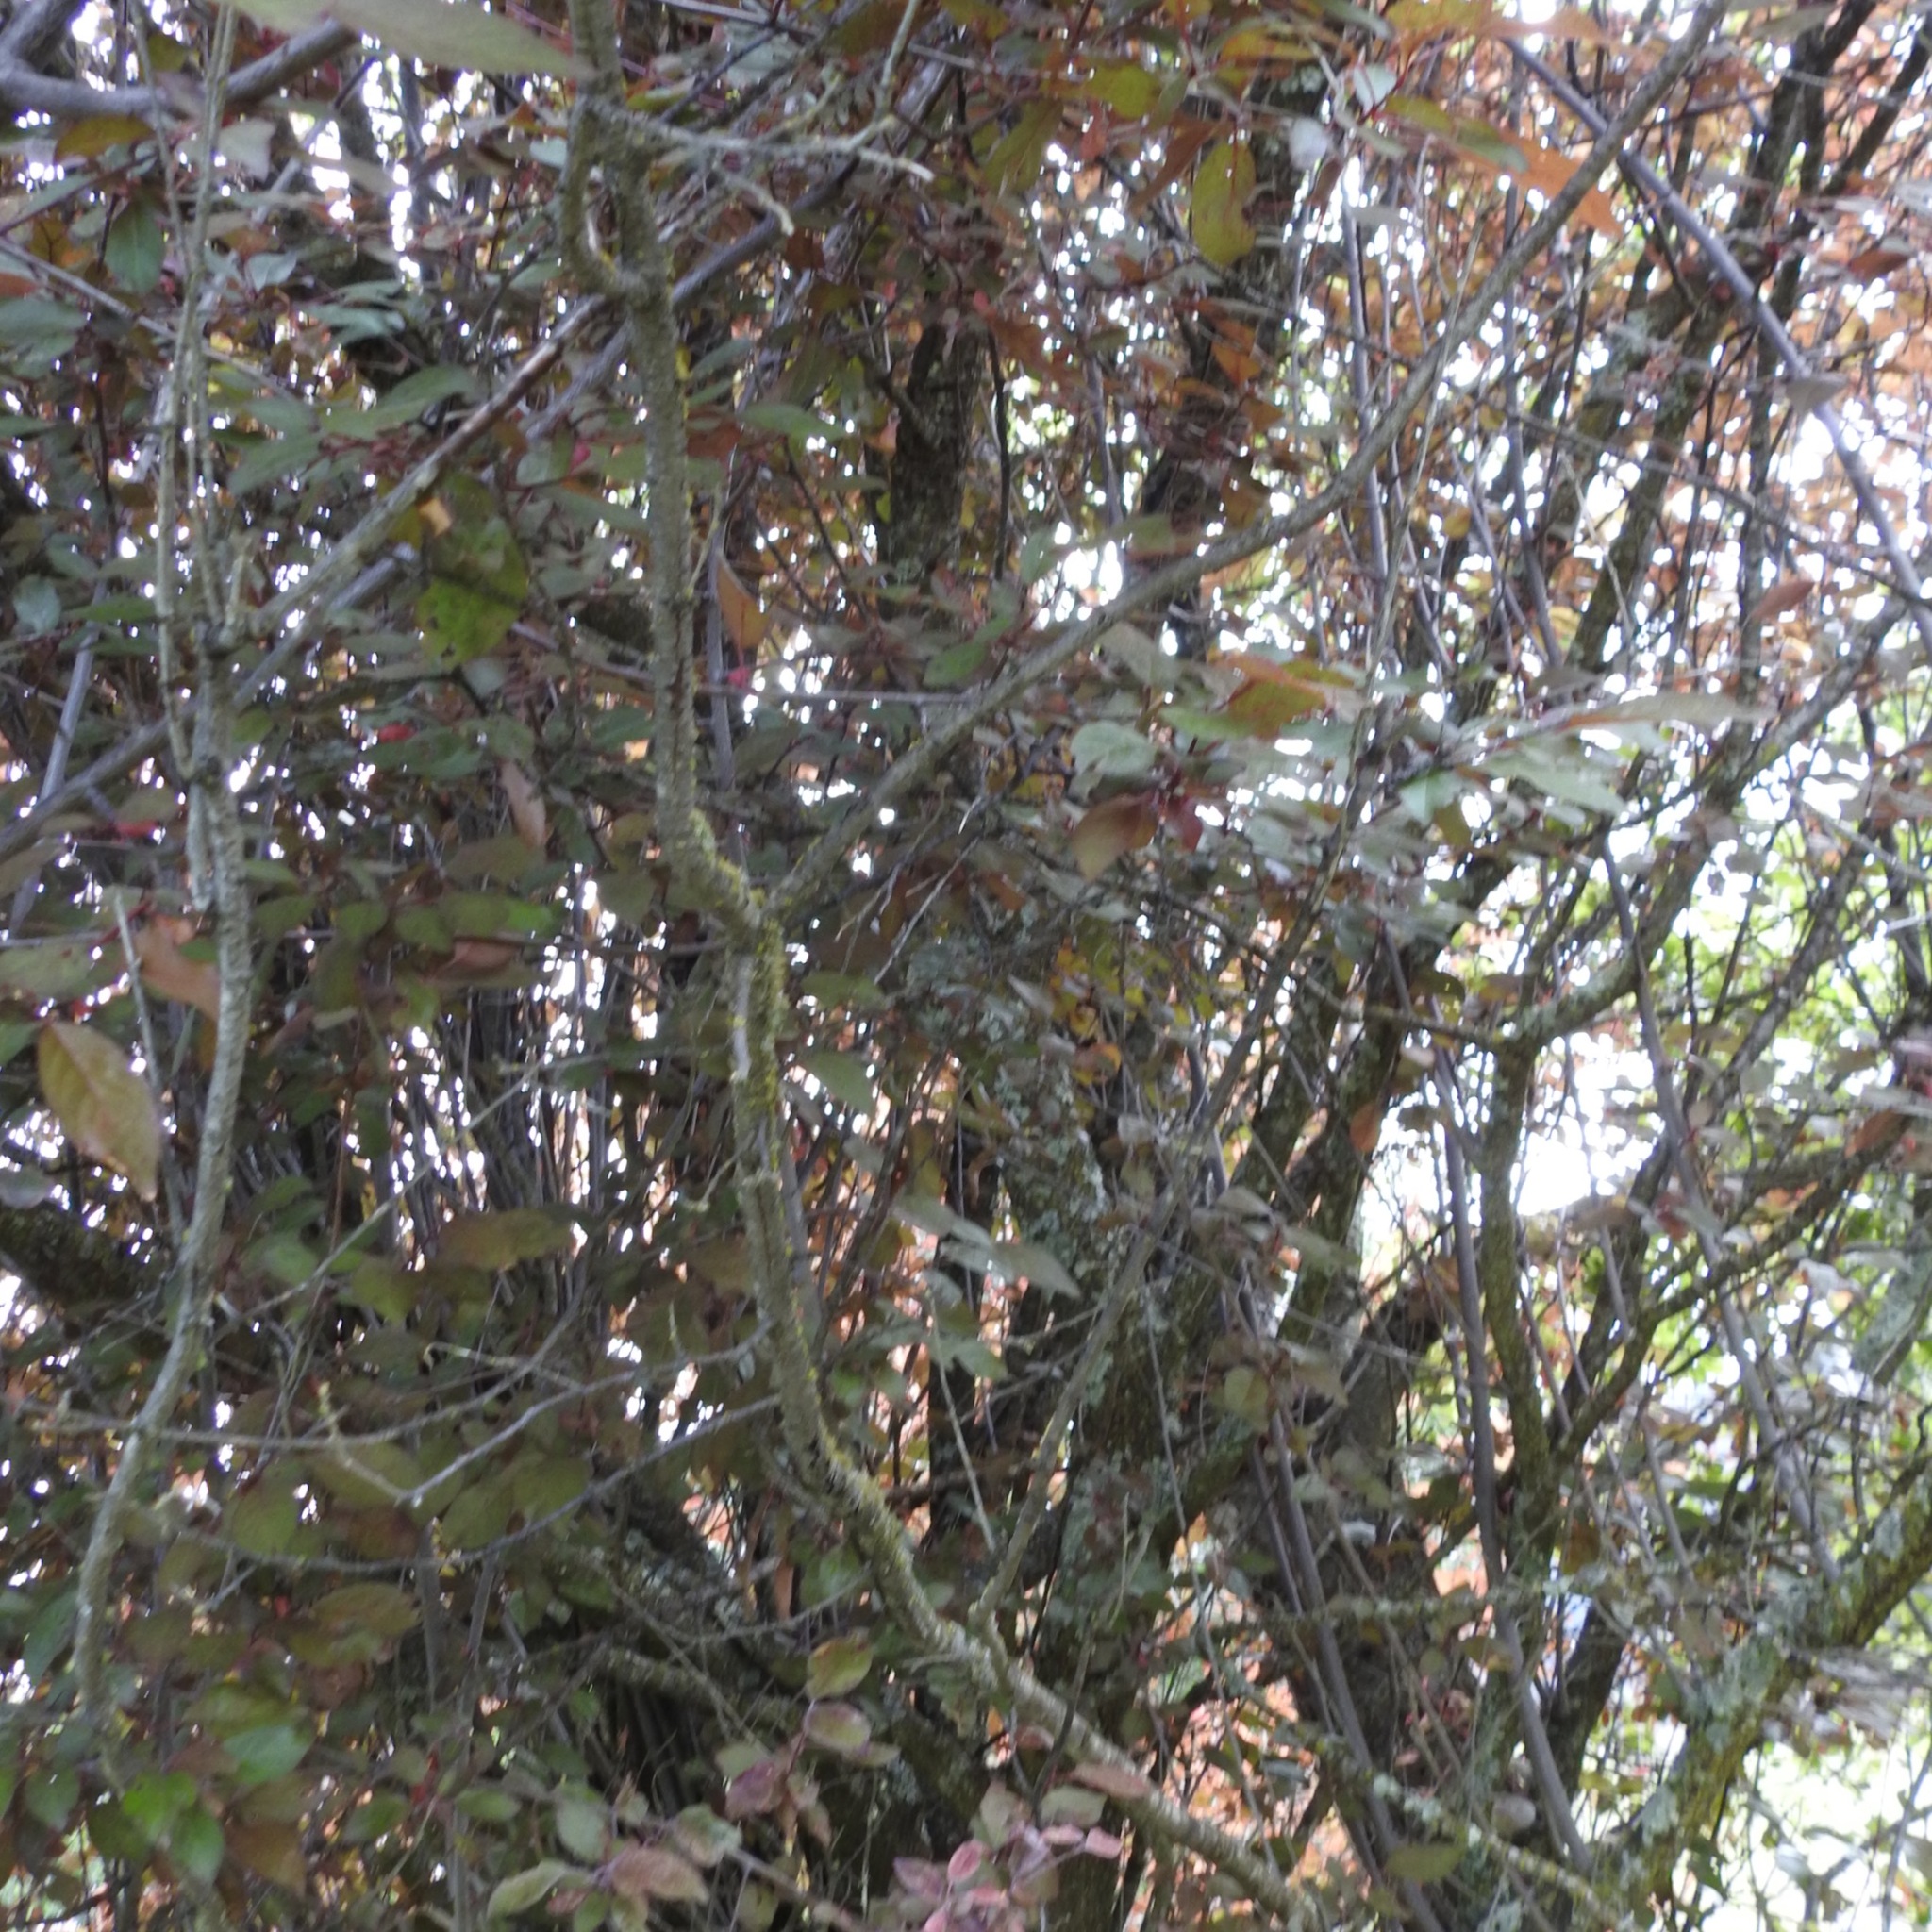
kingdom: Plantae
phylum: Tracheophyta
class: Magnoliopsida
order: Rosales
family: Rosaceae
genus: Prunus
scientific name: Prunus cerasifera
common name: Cherry plum
